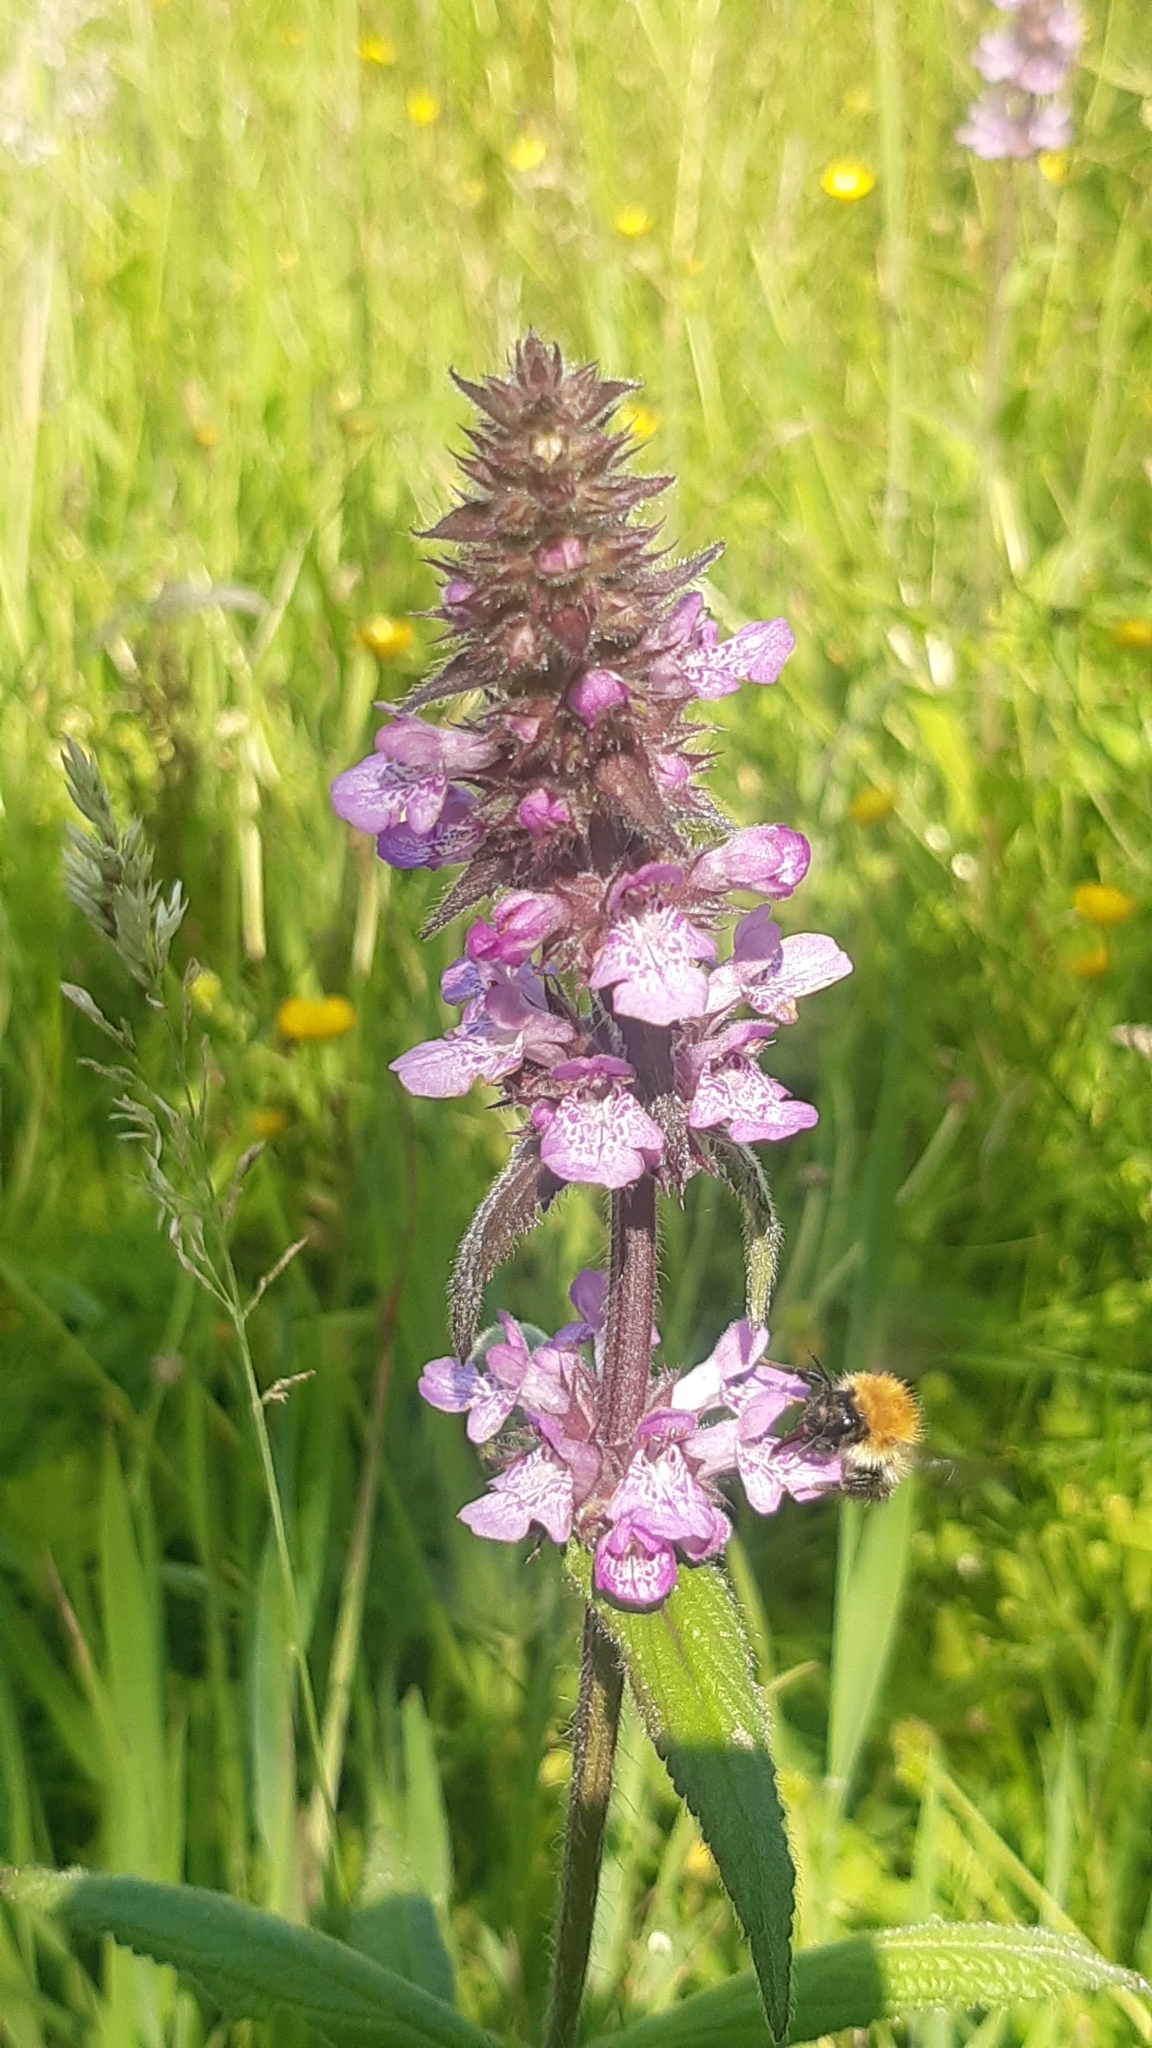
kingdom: Plantae
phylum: Tracheophyta
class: Magnoliopsida
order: Lamiales
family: Lamiaceae
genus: Stachys
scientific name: Stachys palustris
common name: Marsh woundwort
